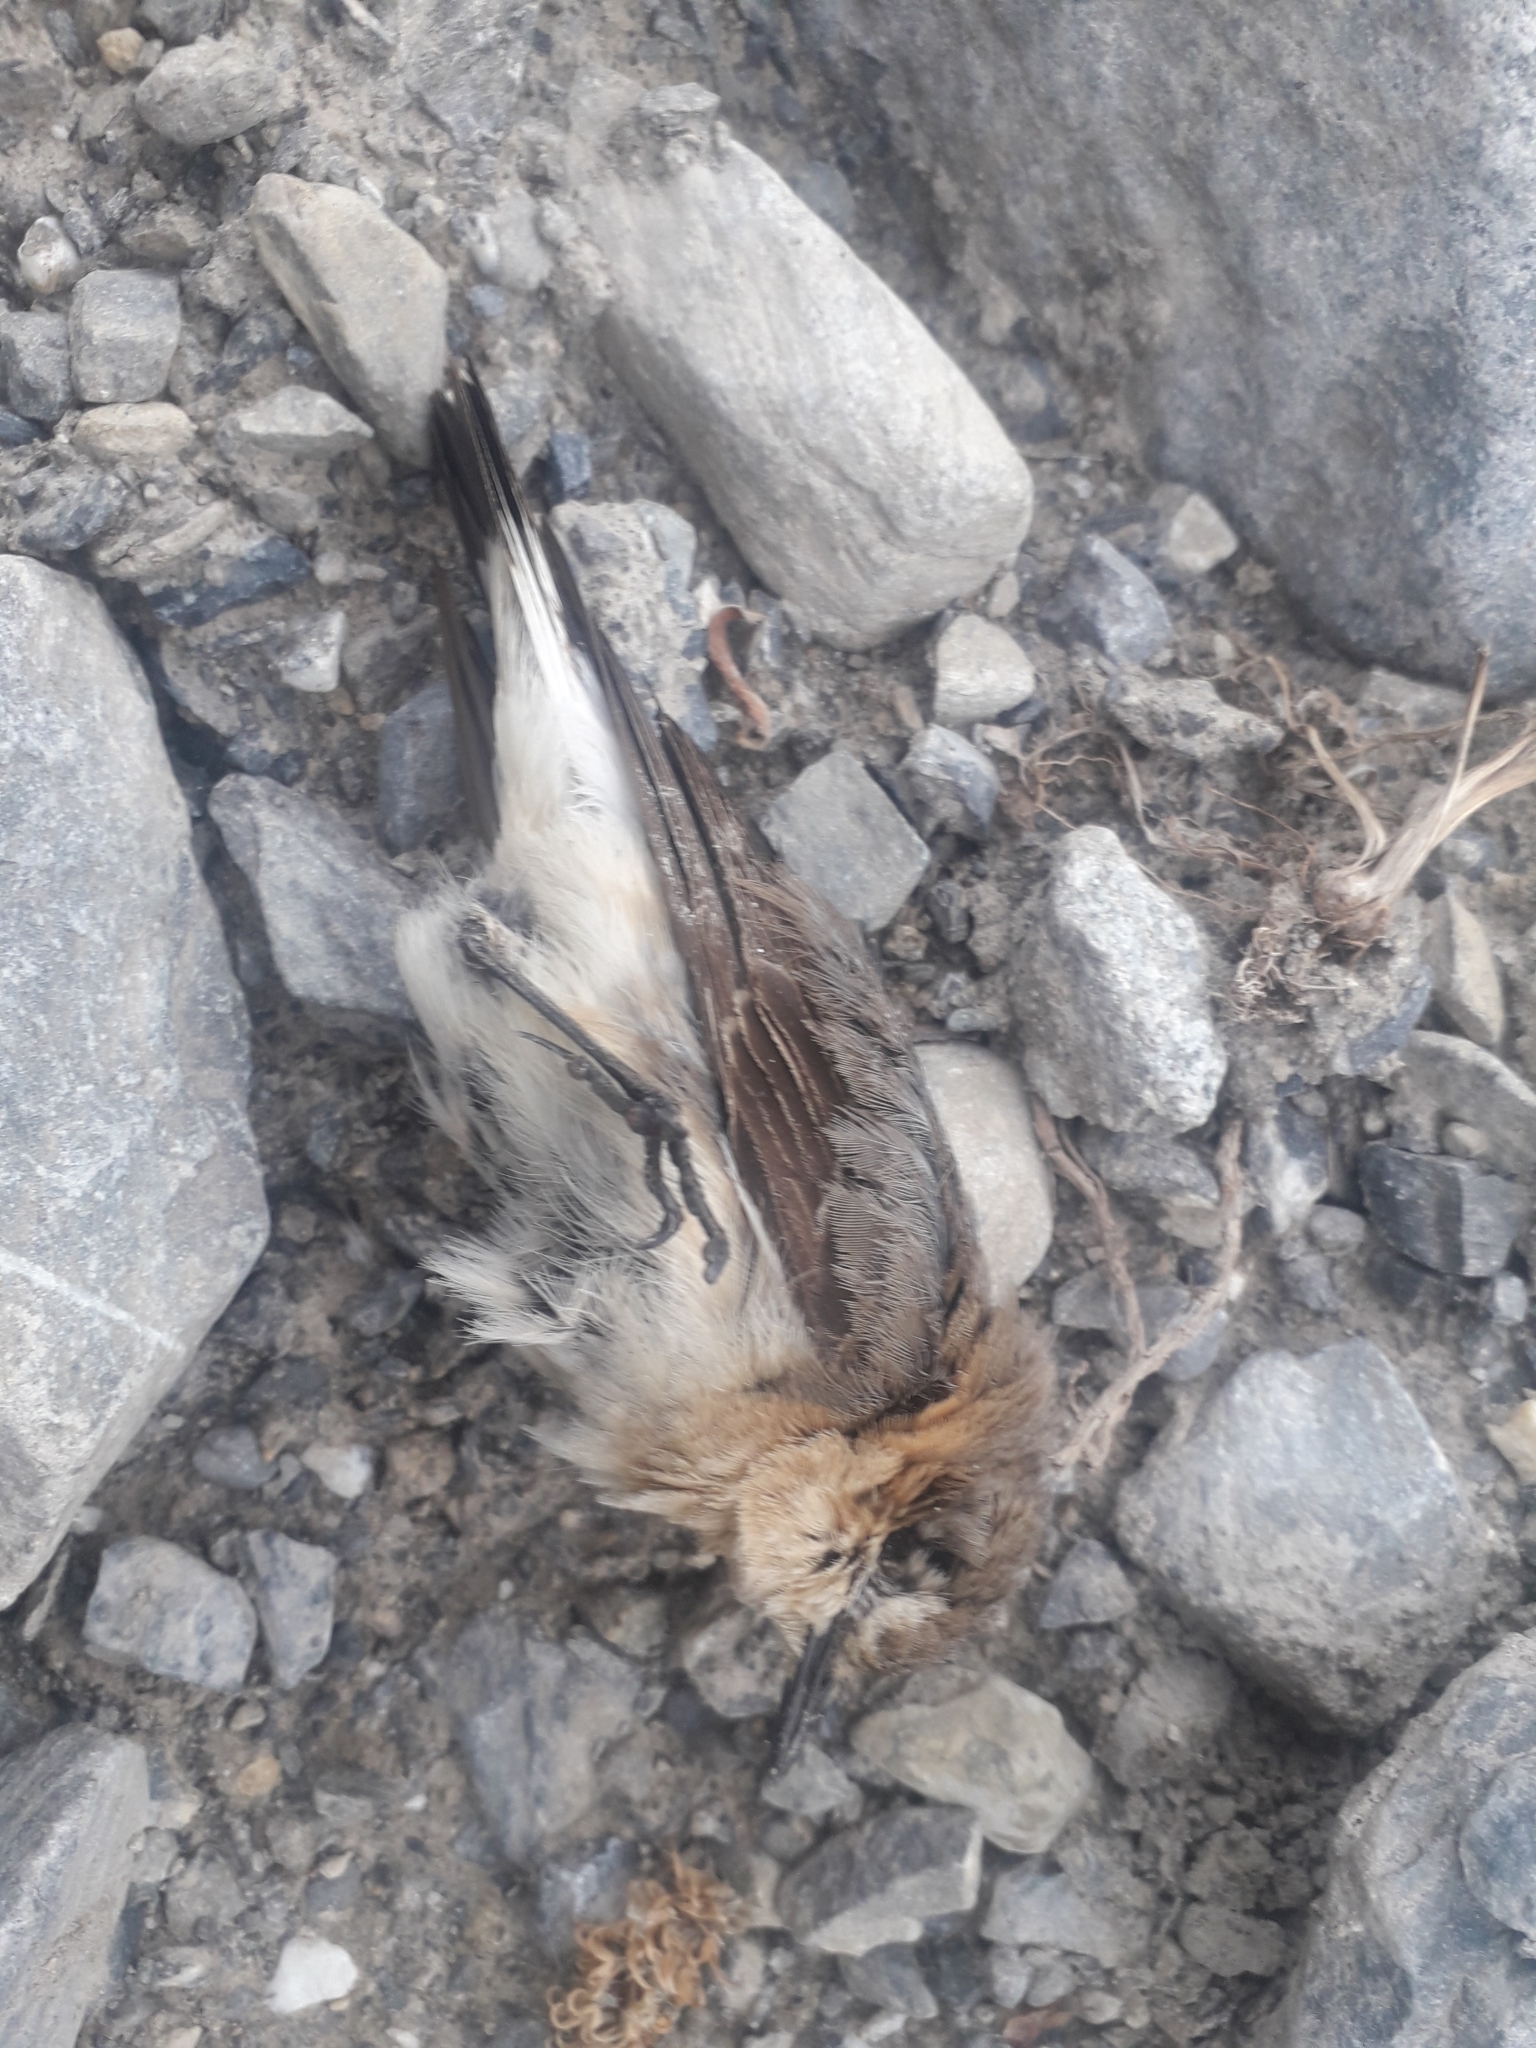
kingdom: Animalia
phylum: Chordata
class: Aves
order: Passeriformes
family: Muscicapidae
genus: Oenanthe
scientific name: Oenanthe oenanthe
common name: Northern wheatear
